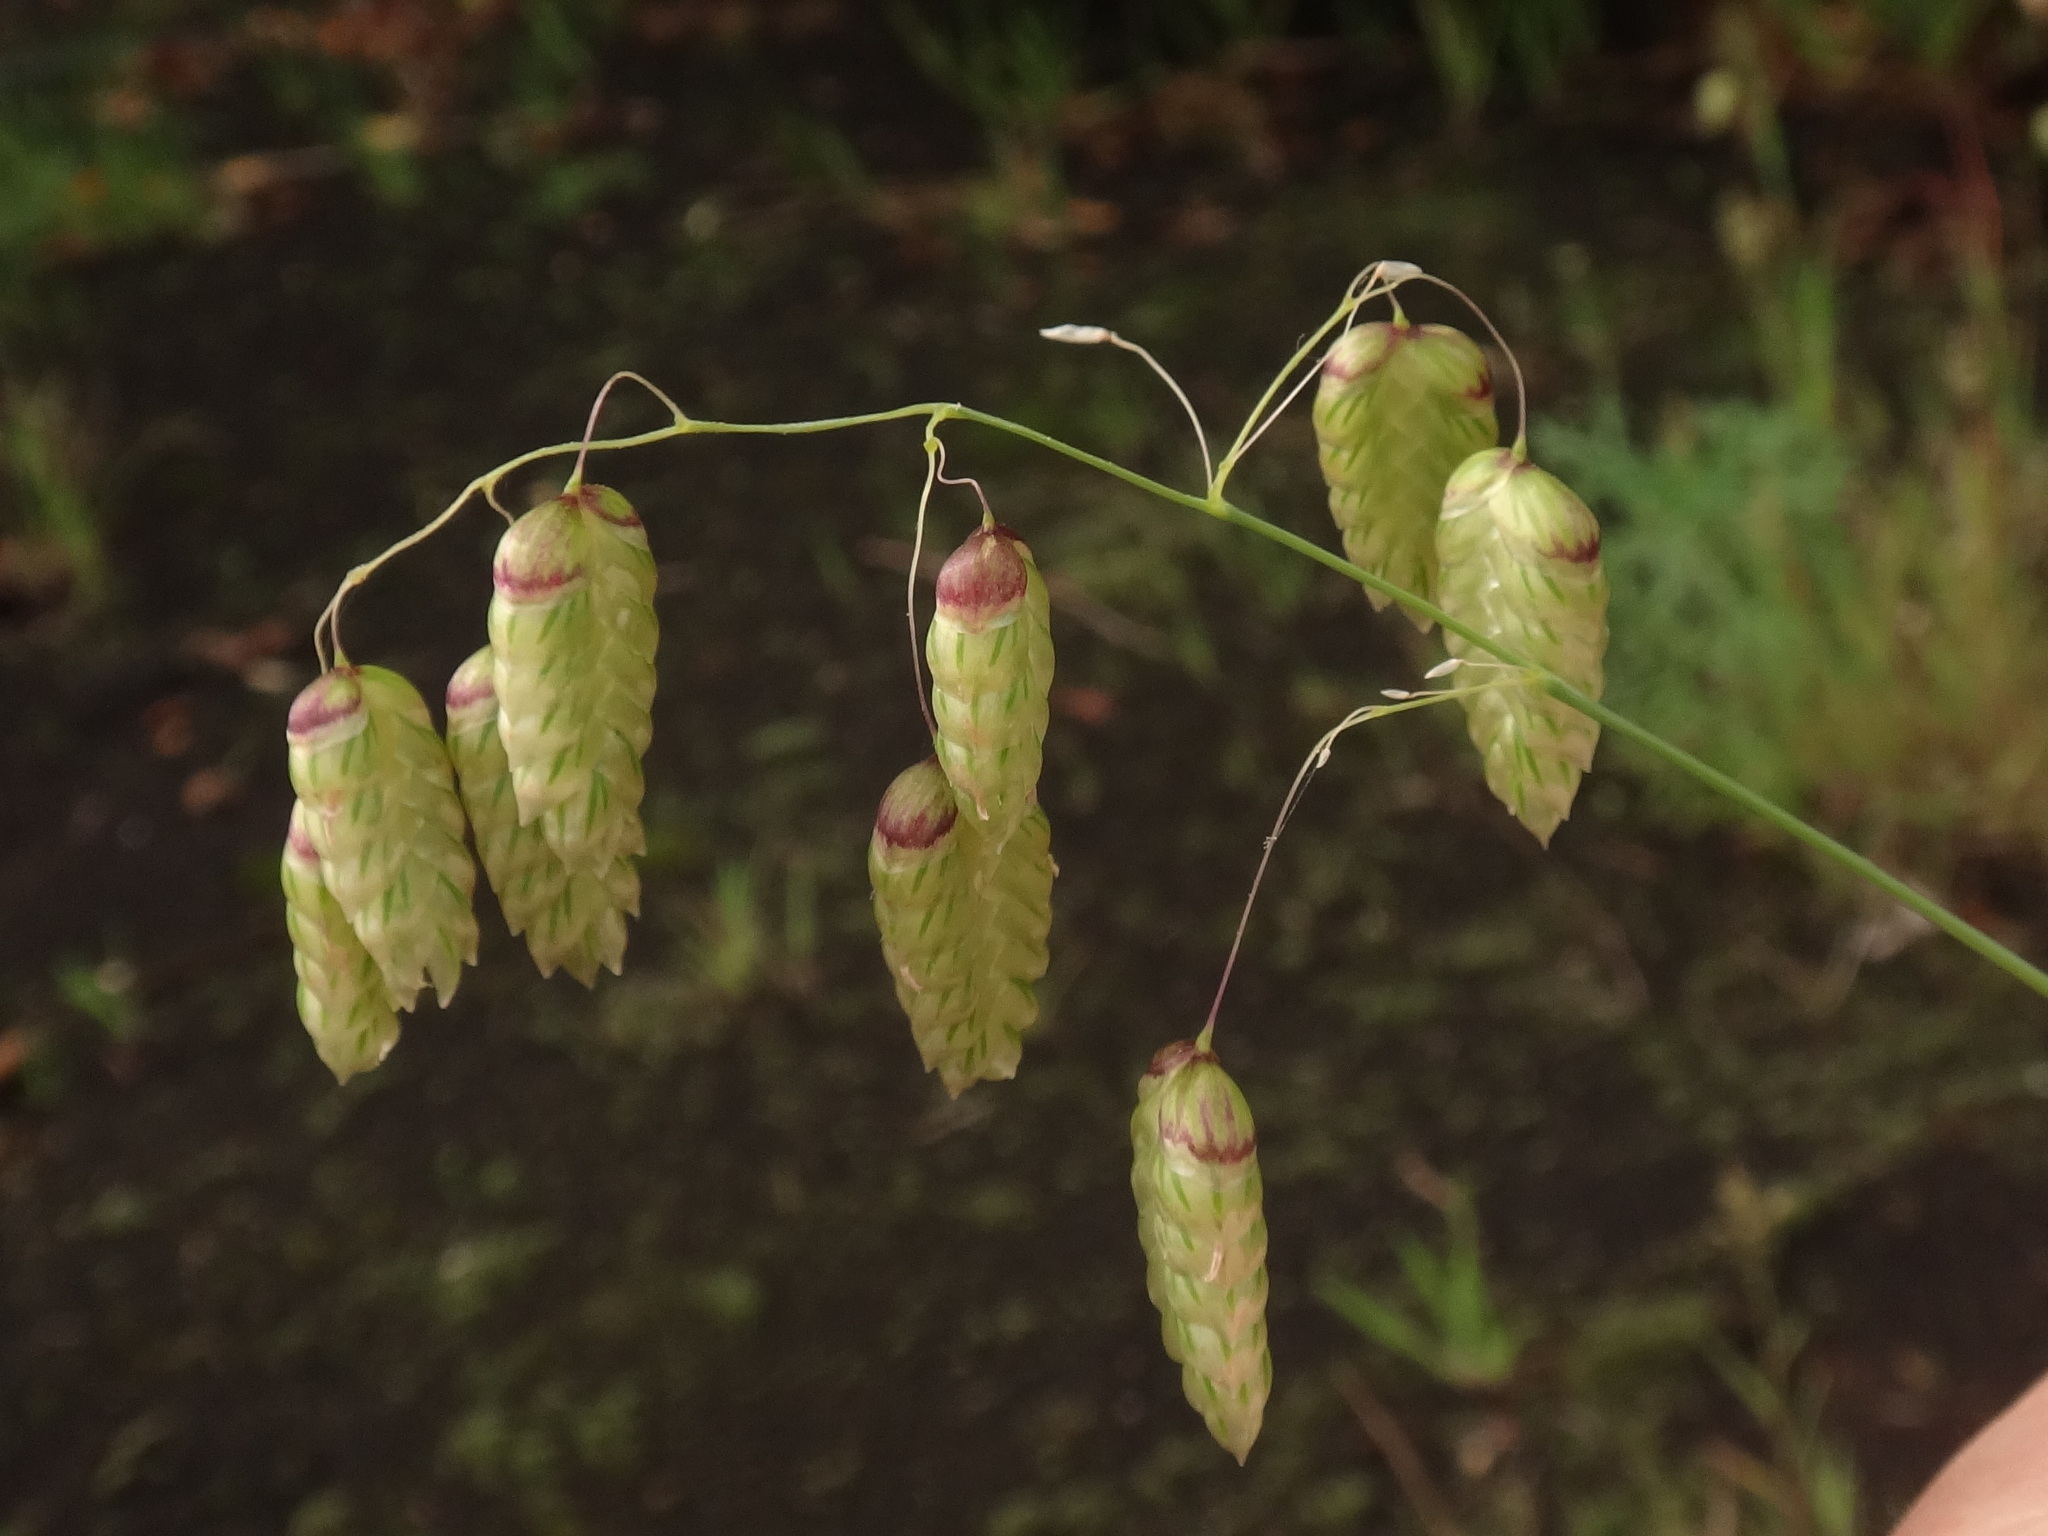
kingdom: Plantae
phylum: Tracheophyta
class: Liliopsida
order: Poales
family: Poaceae
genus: Briza
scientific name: Briza maxima
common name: Big quakinggrass
